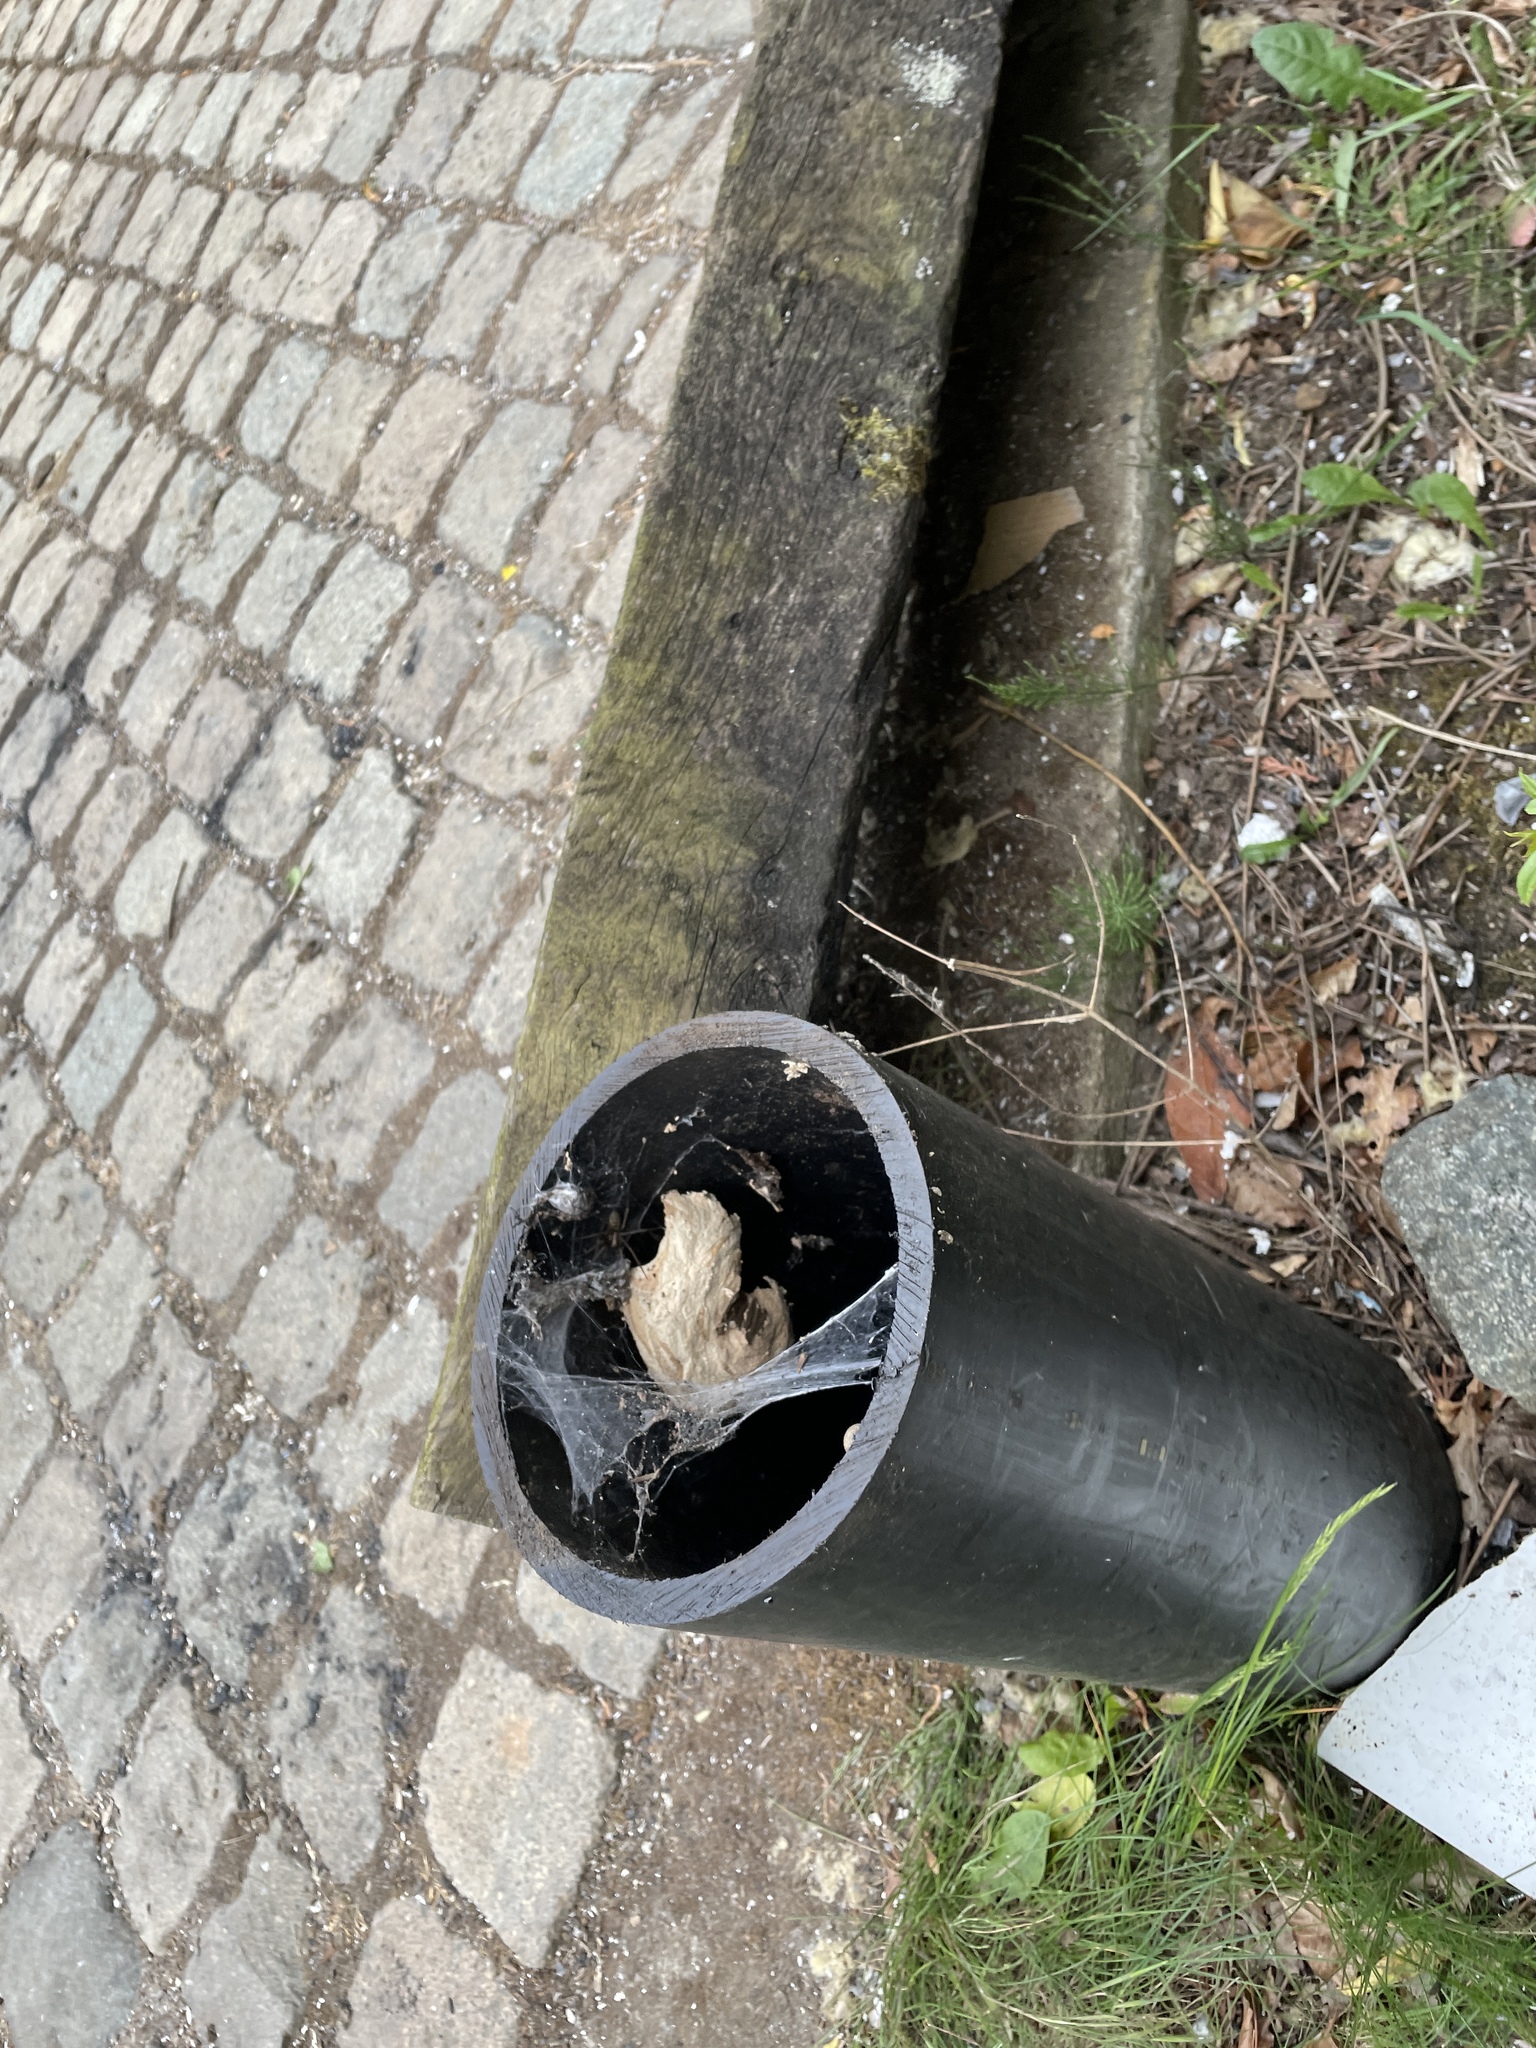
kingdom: Animalia
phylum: Arthropoda
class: Insecta
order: Hymenoptera
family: Vespidae
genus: Vespa
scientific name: Vespa crabro
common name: Hornet
